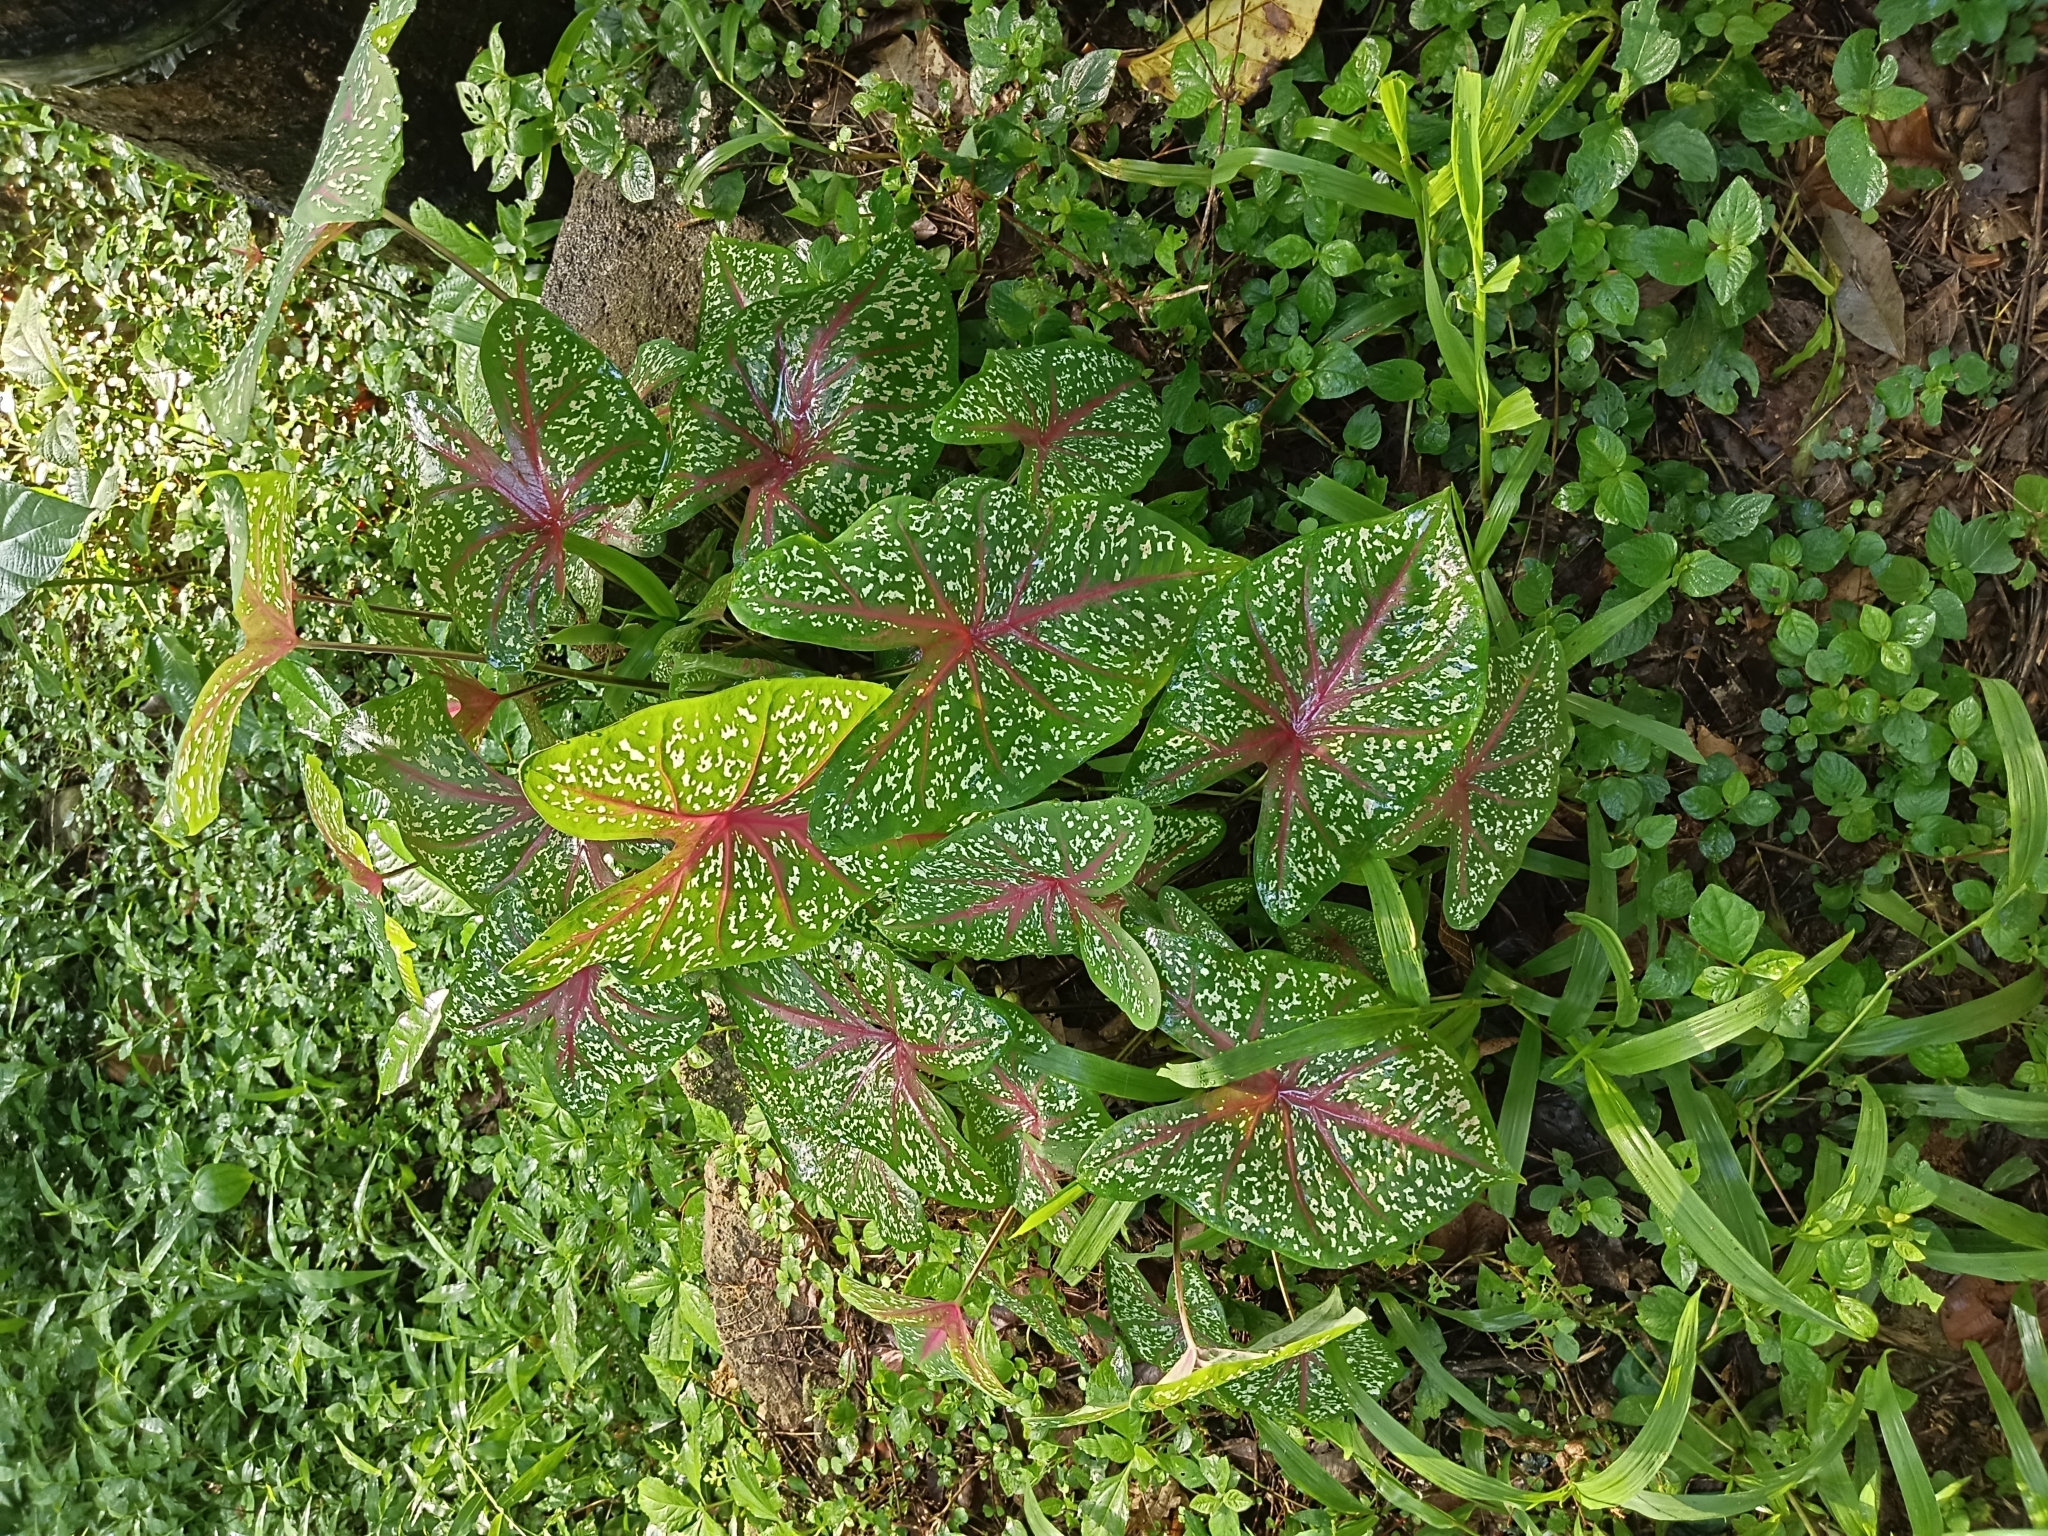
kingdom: Plantae
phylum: Tracheophyta
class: Liliopsida
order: Alismatales
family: Araceae
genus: Caladium
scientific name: Caladium bicolor
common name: Artist's pallet
